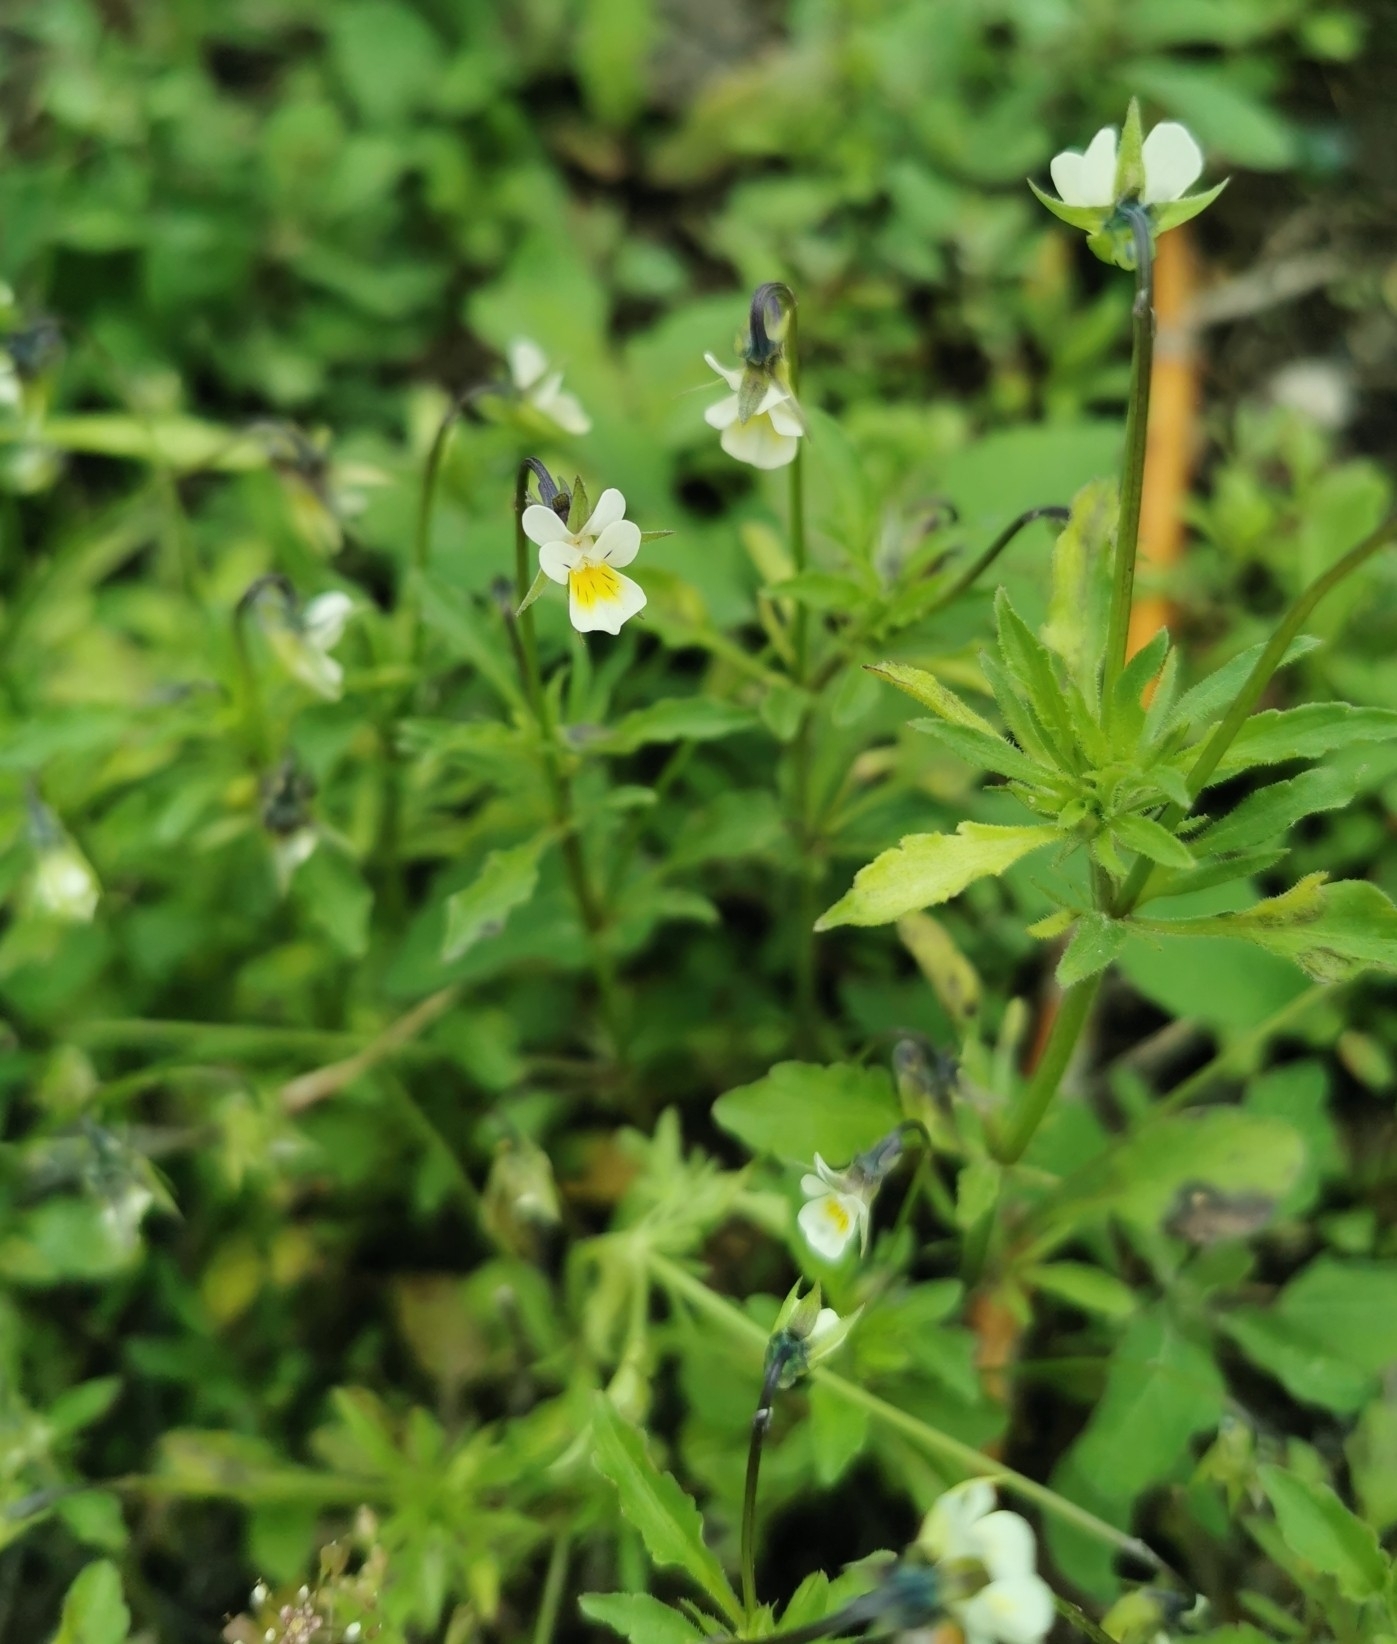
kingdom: Plantae
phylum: Tracheophyta
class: Magnoliopsida
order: Malpighiales
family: Violaceae
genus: Viola
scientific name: Viola arvensis
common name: Field pansy
